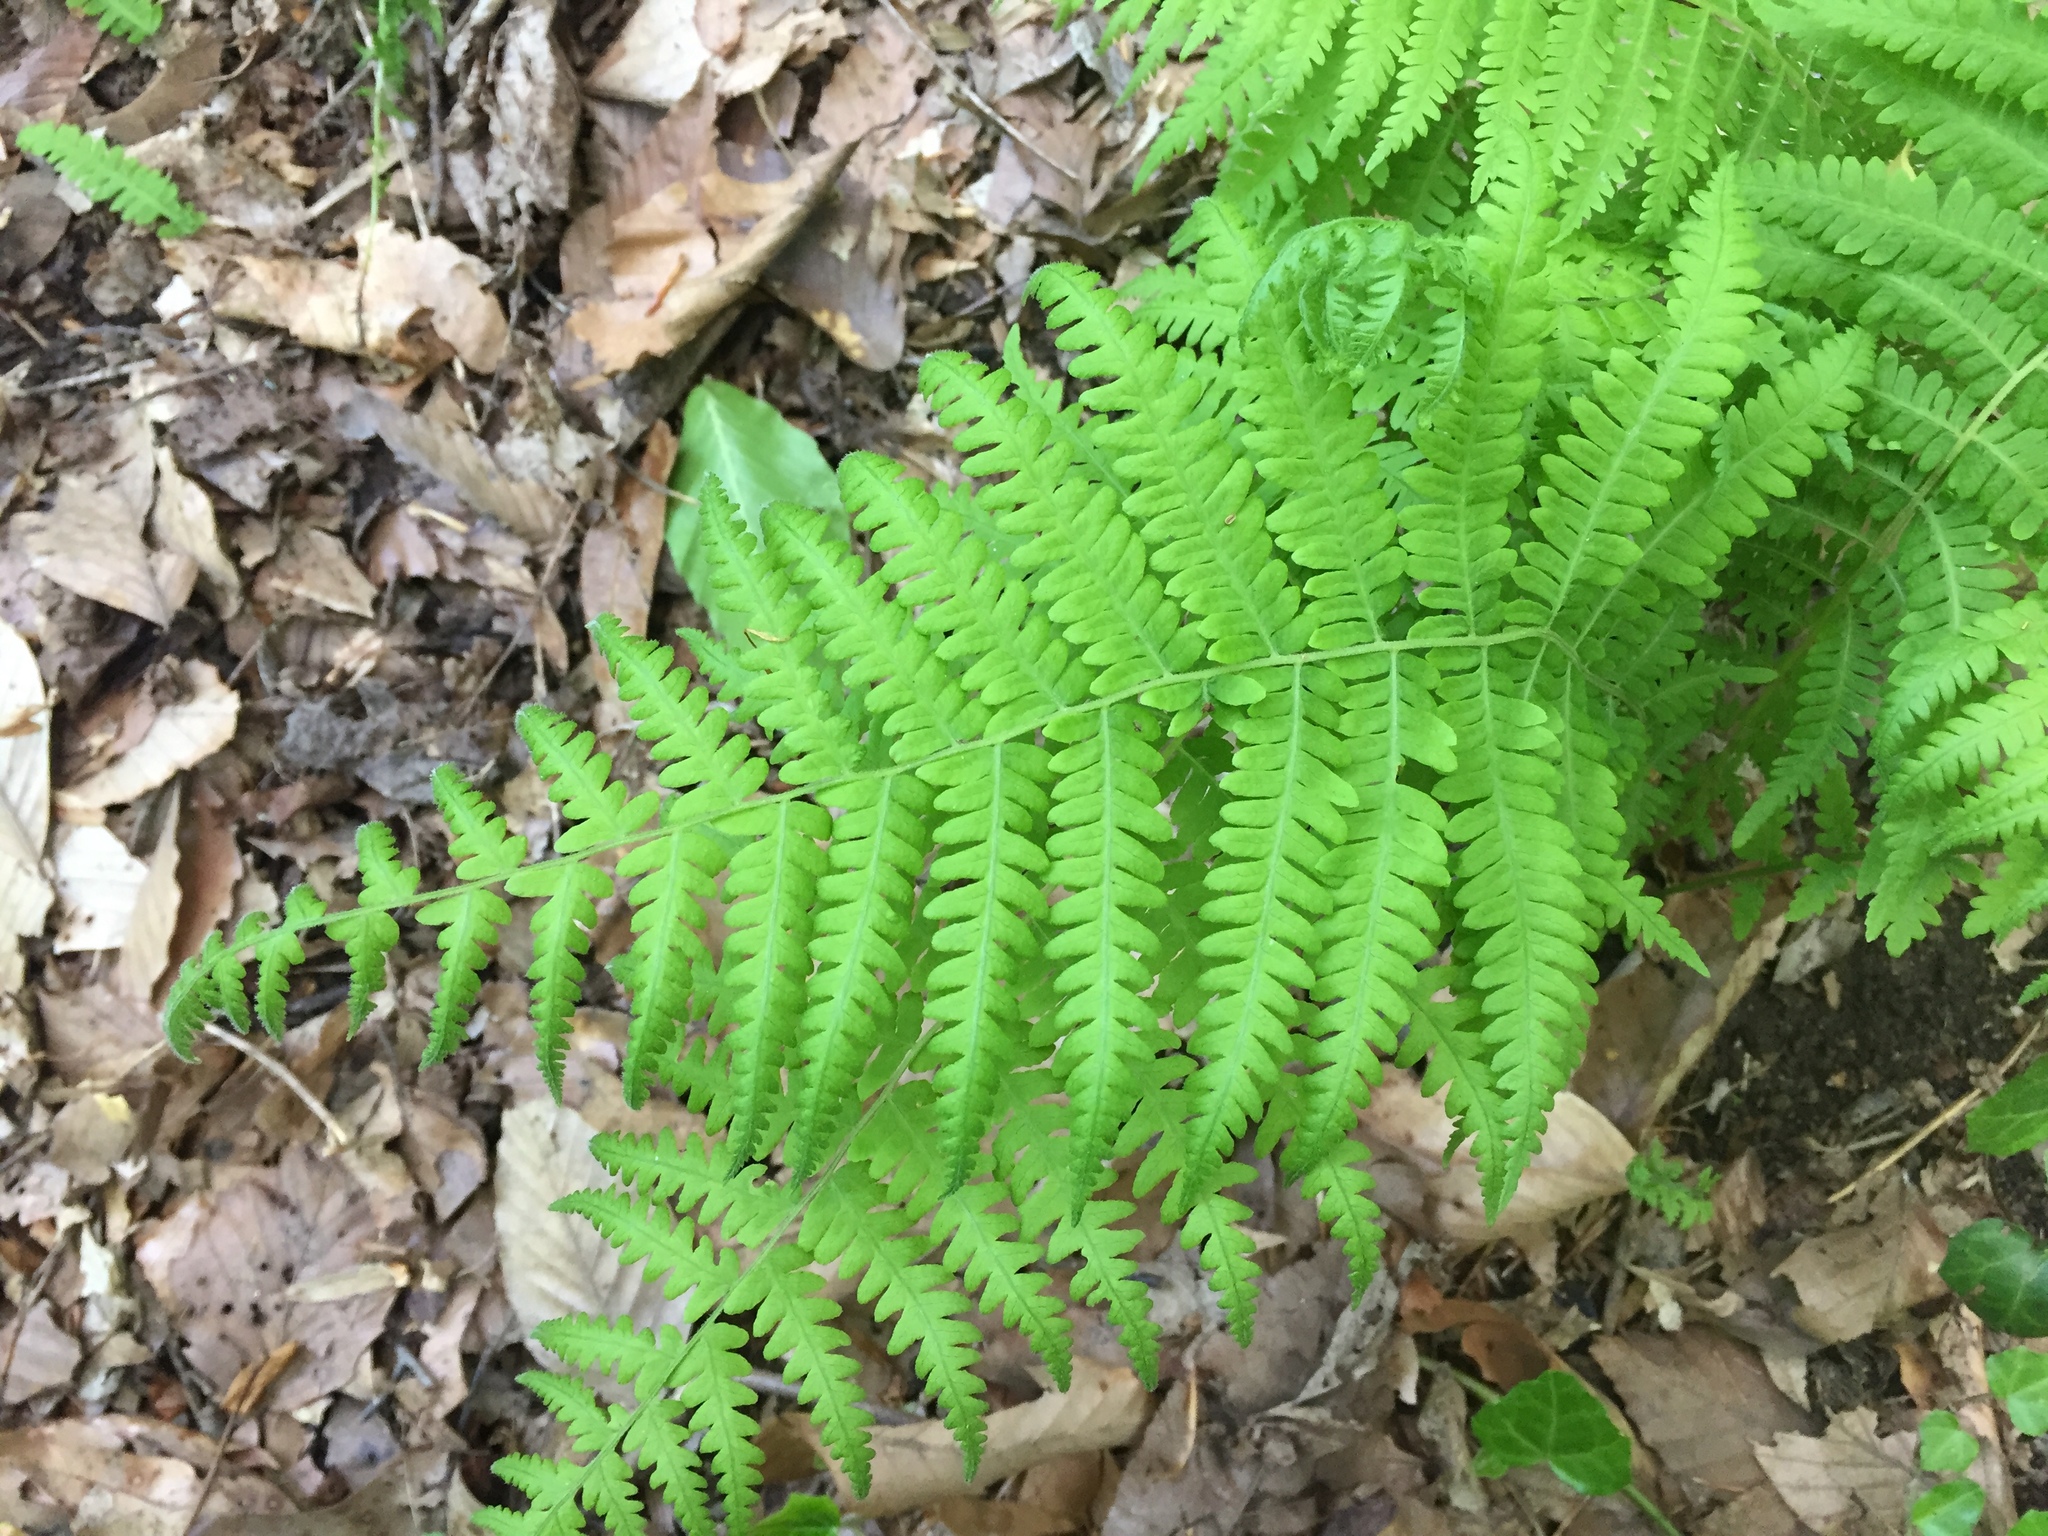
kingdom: Plantae
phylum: Tracheophyta
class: Polypodiopsida
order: Polypodiales
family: Thelypteridaceae
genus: Amauropelta
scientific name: Amauropelta noveboracensis
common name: New york fern
